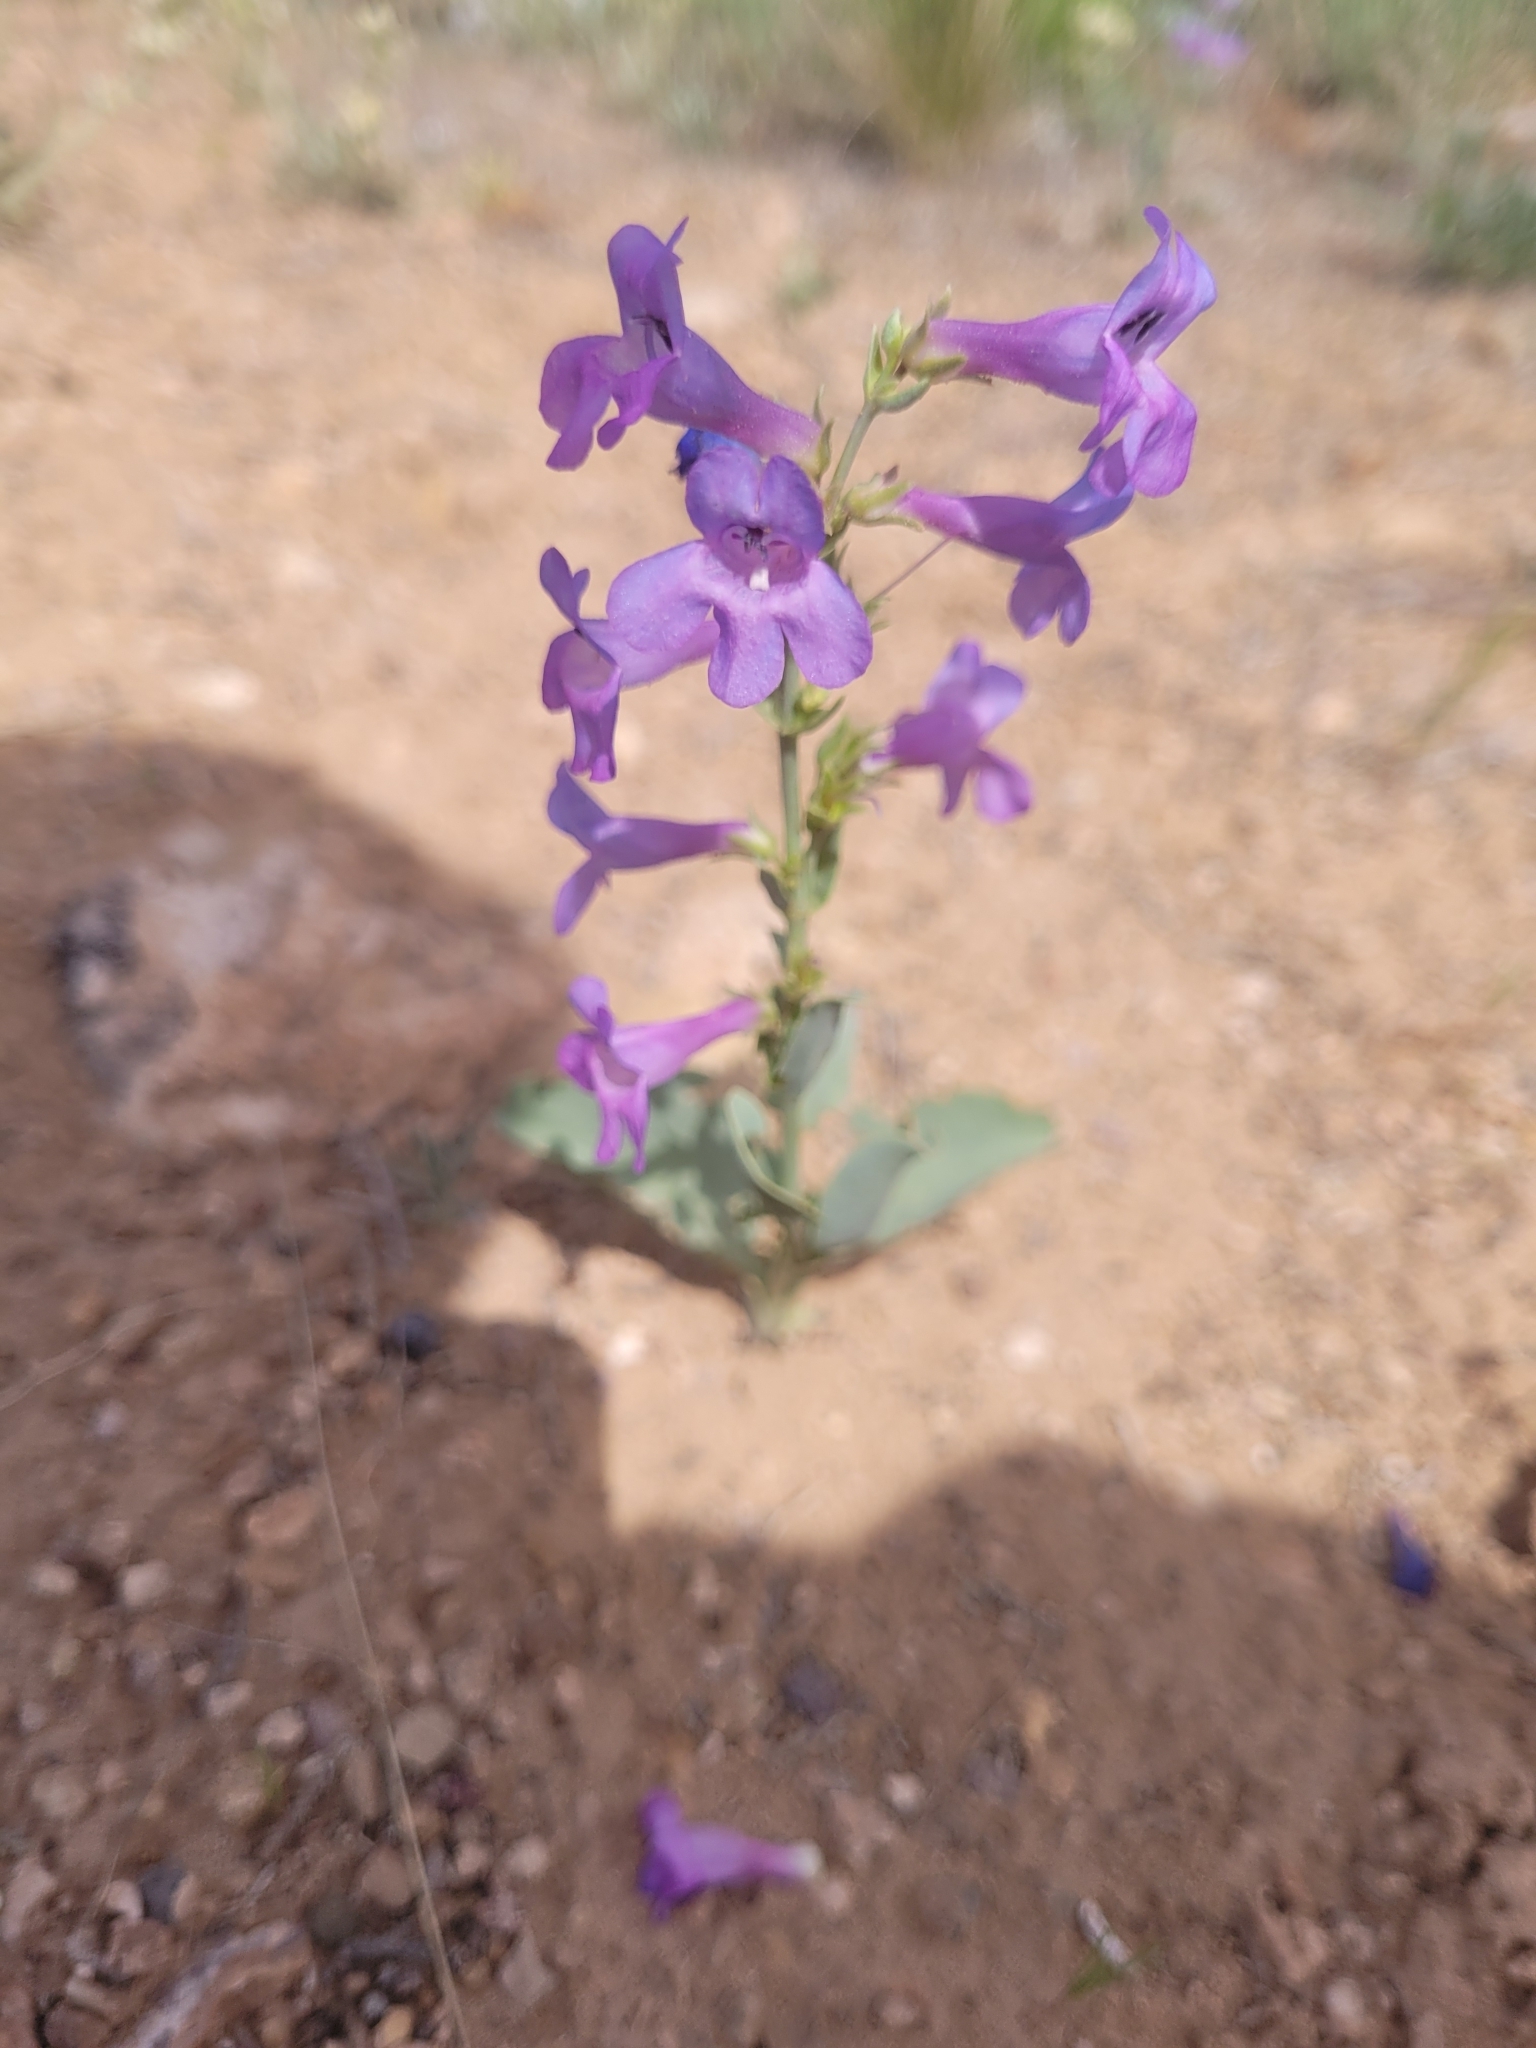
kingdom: Plantae
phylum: Tracheophyta
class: Magnoliopsida
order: Lamiales
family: Plantaginaceae
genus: Penstemon
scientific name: Penstemon carnosus
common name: Fleshy penstemon
